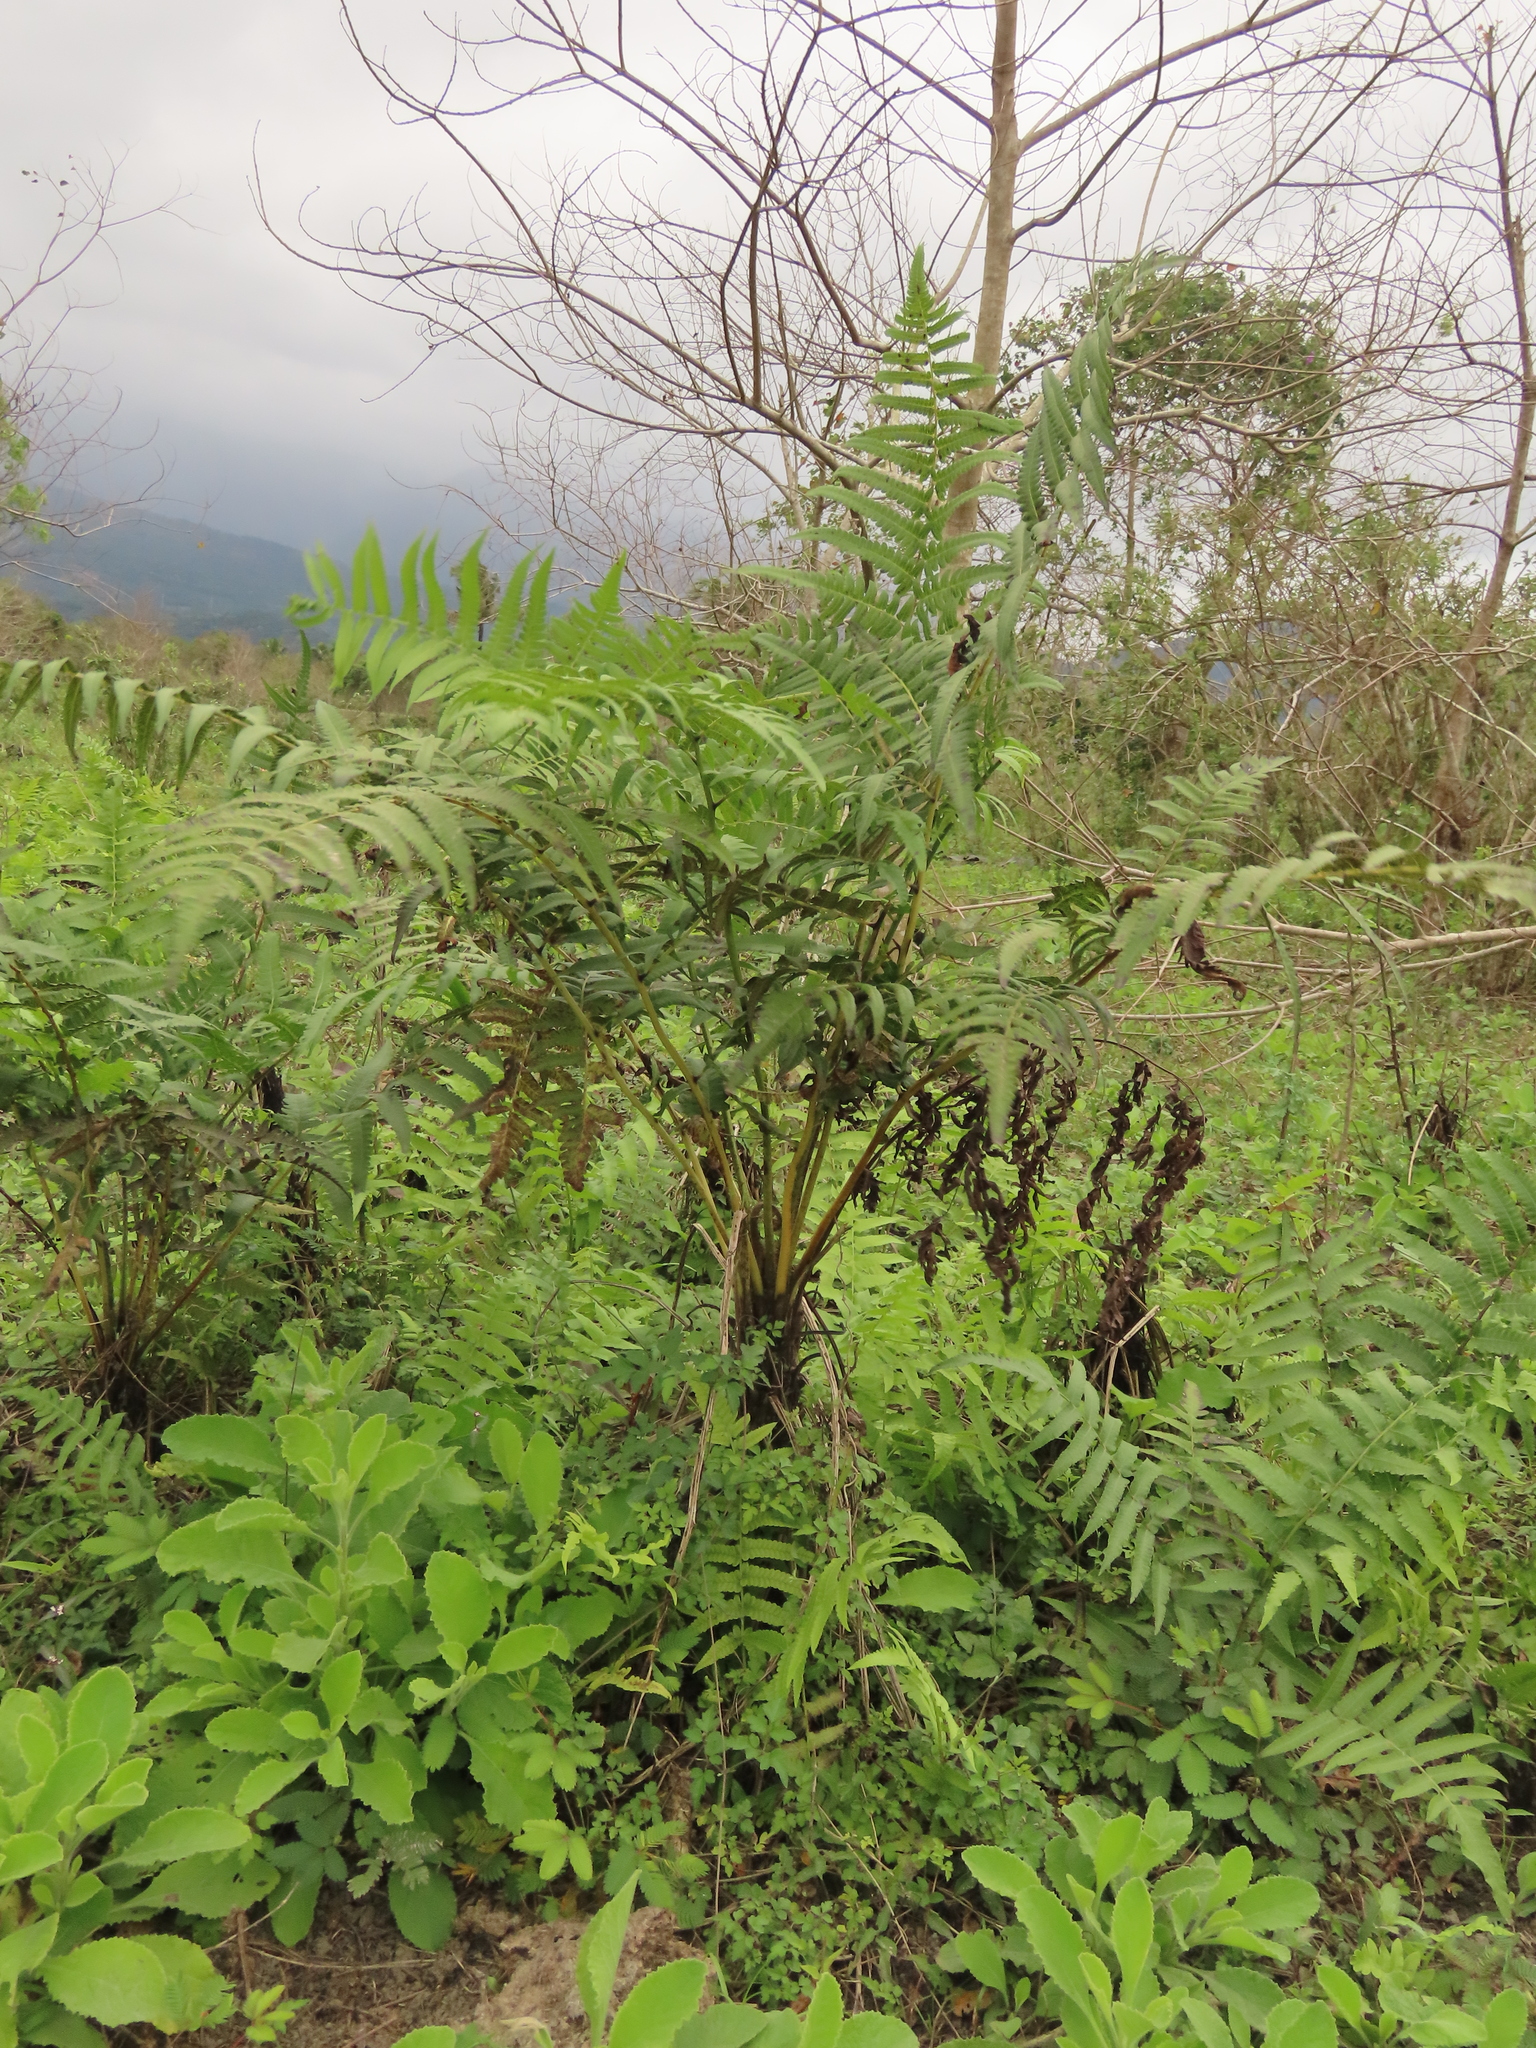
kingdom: Plantae
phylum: Tracheophyta
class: Polypodiopsida
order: Polypodiales
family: Athyriaceae
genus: Diplazium
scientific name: Diplazium esculentum
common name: Vegetable fern
